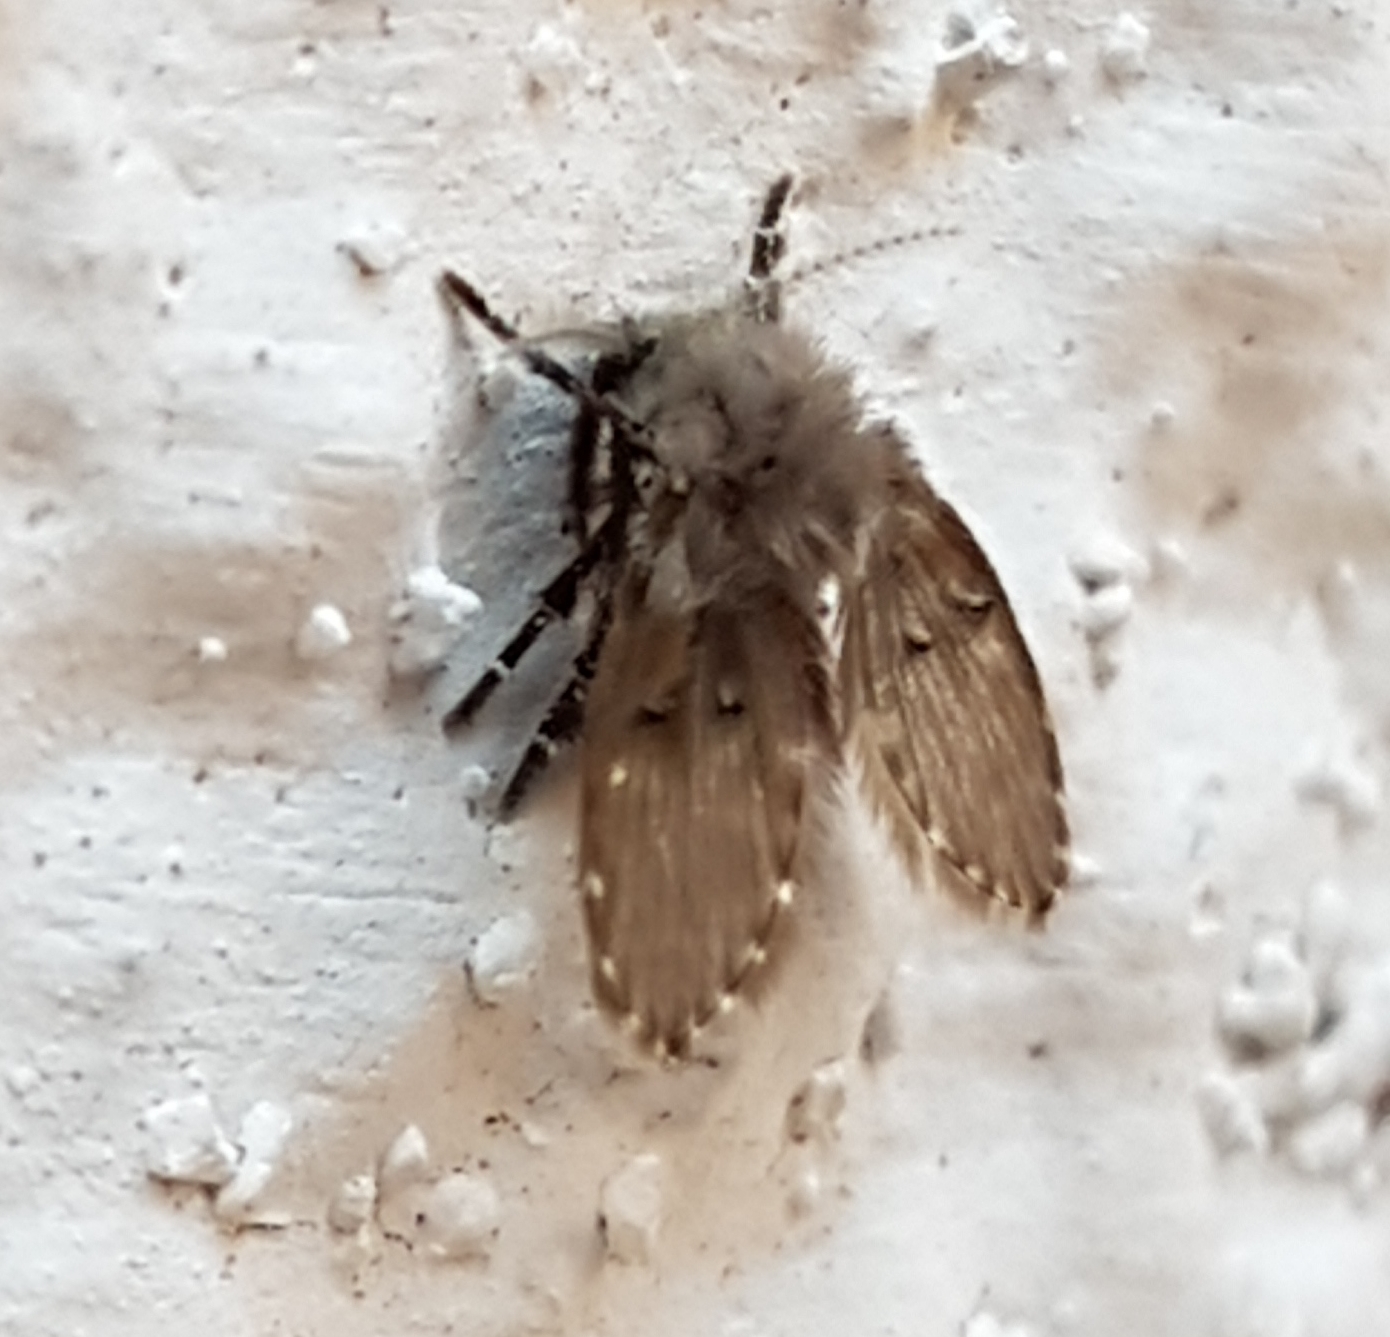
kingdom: Animalia
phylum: Arthropoda
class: Insecta
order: Diptera
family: Psychodidae
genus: Clogmia
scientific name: Clogmia albipunctatus
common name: White-spotted moth fly
